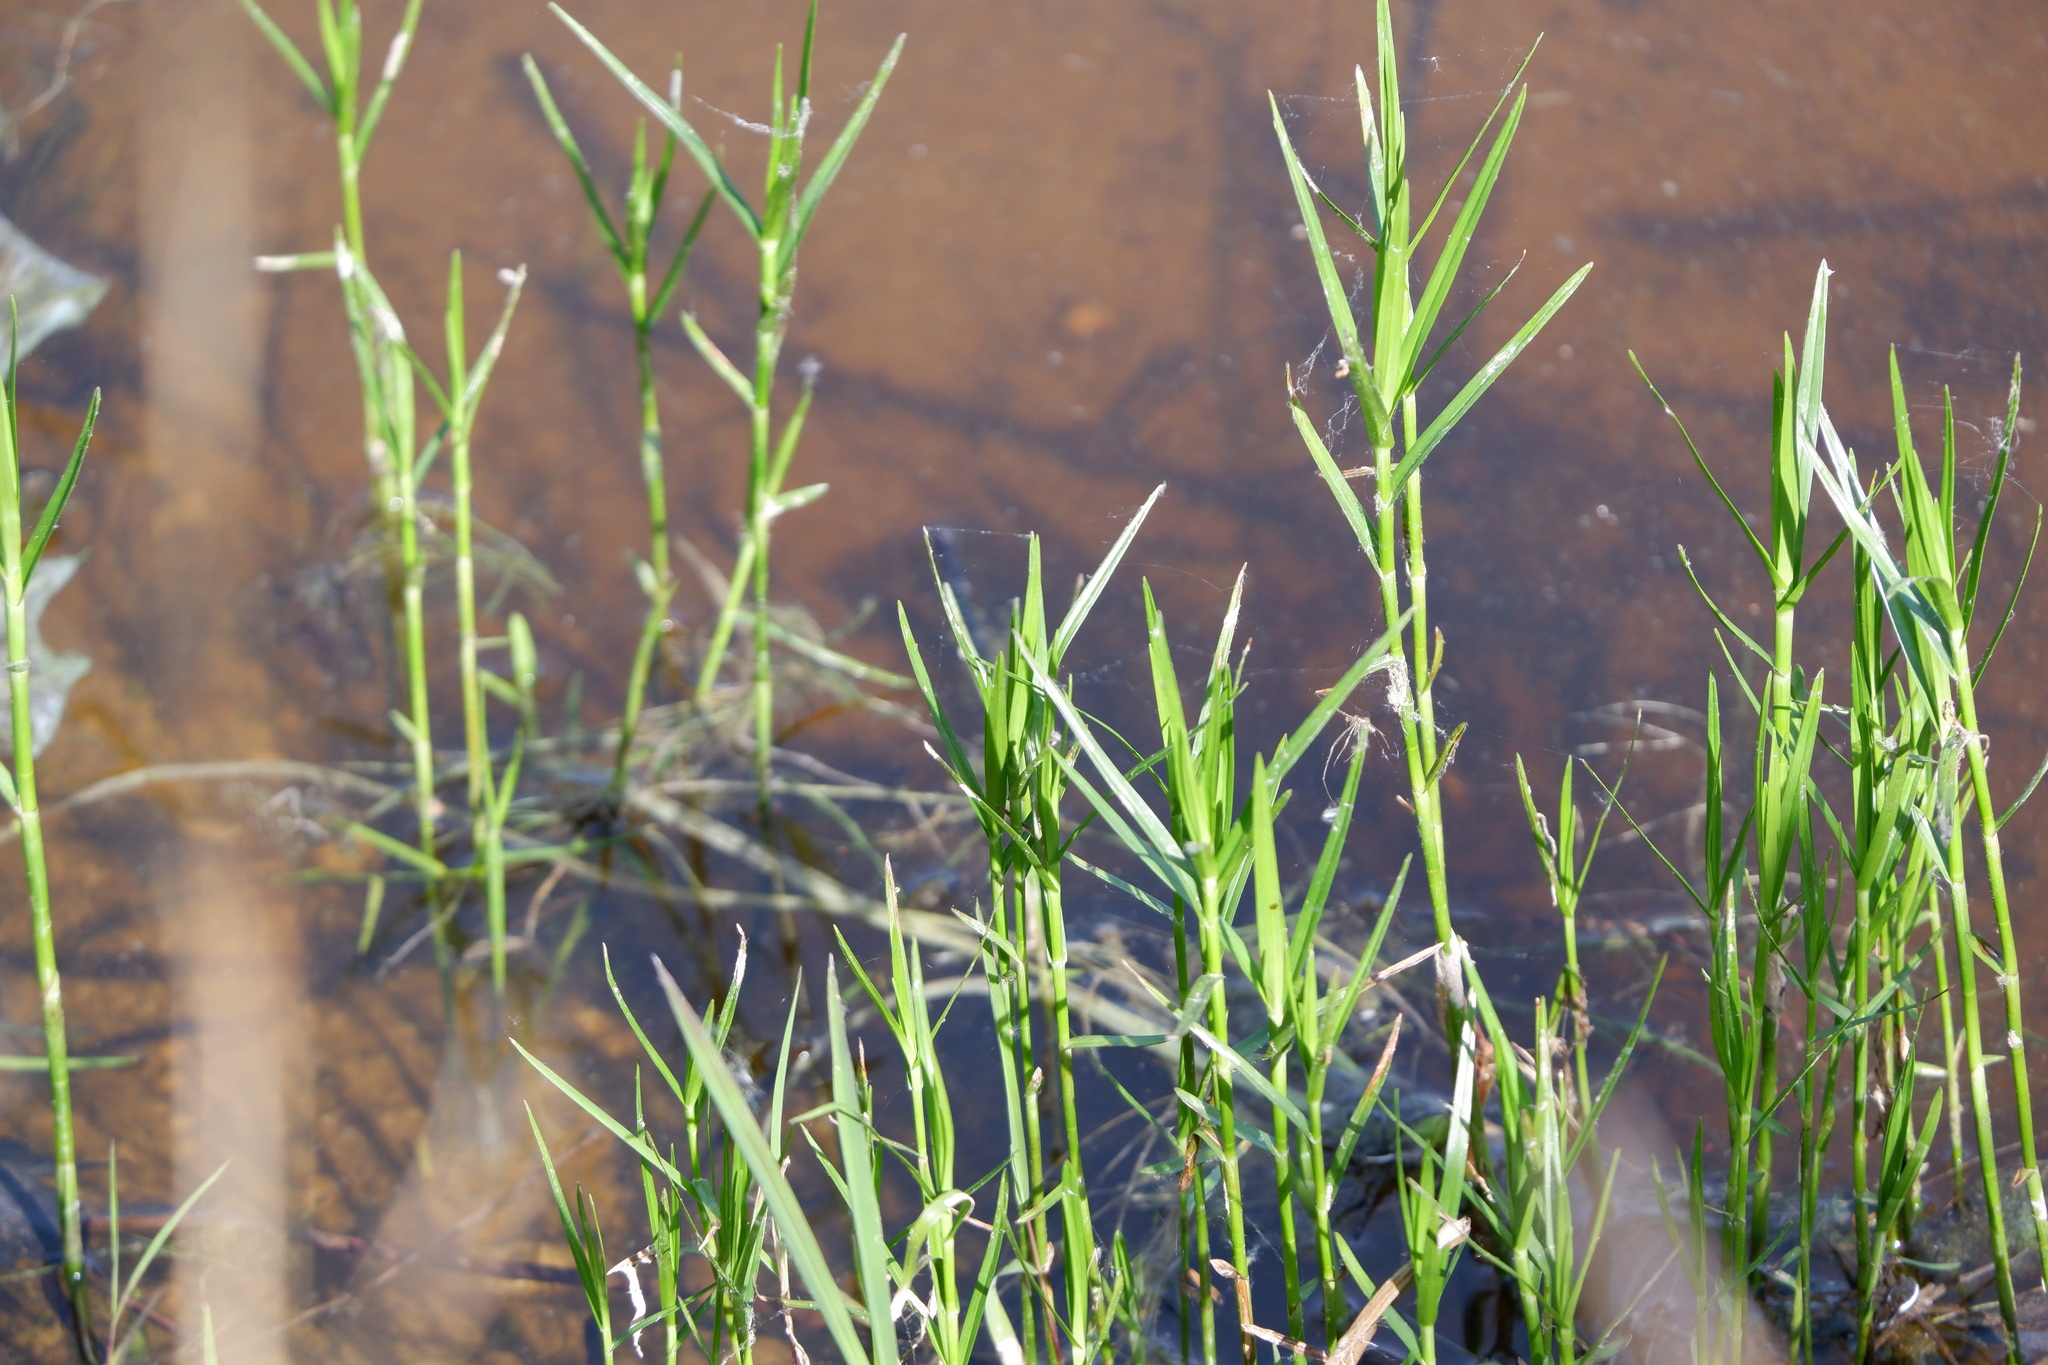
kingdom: Plantae
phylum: Tracheophyta
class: Liliopsida
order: Poales
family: Cyperaceae
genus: Dulichium
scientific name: Dulichium arundinaceum
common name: Three-way sedge
